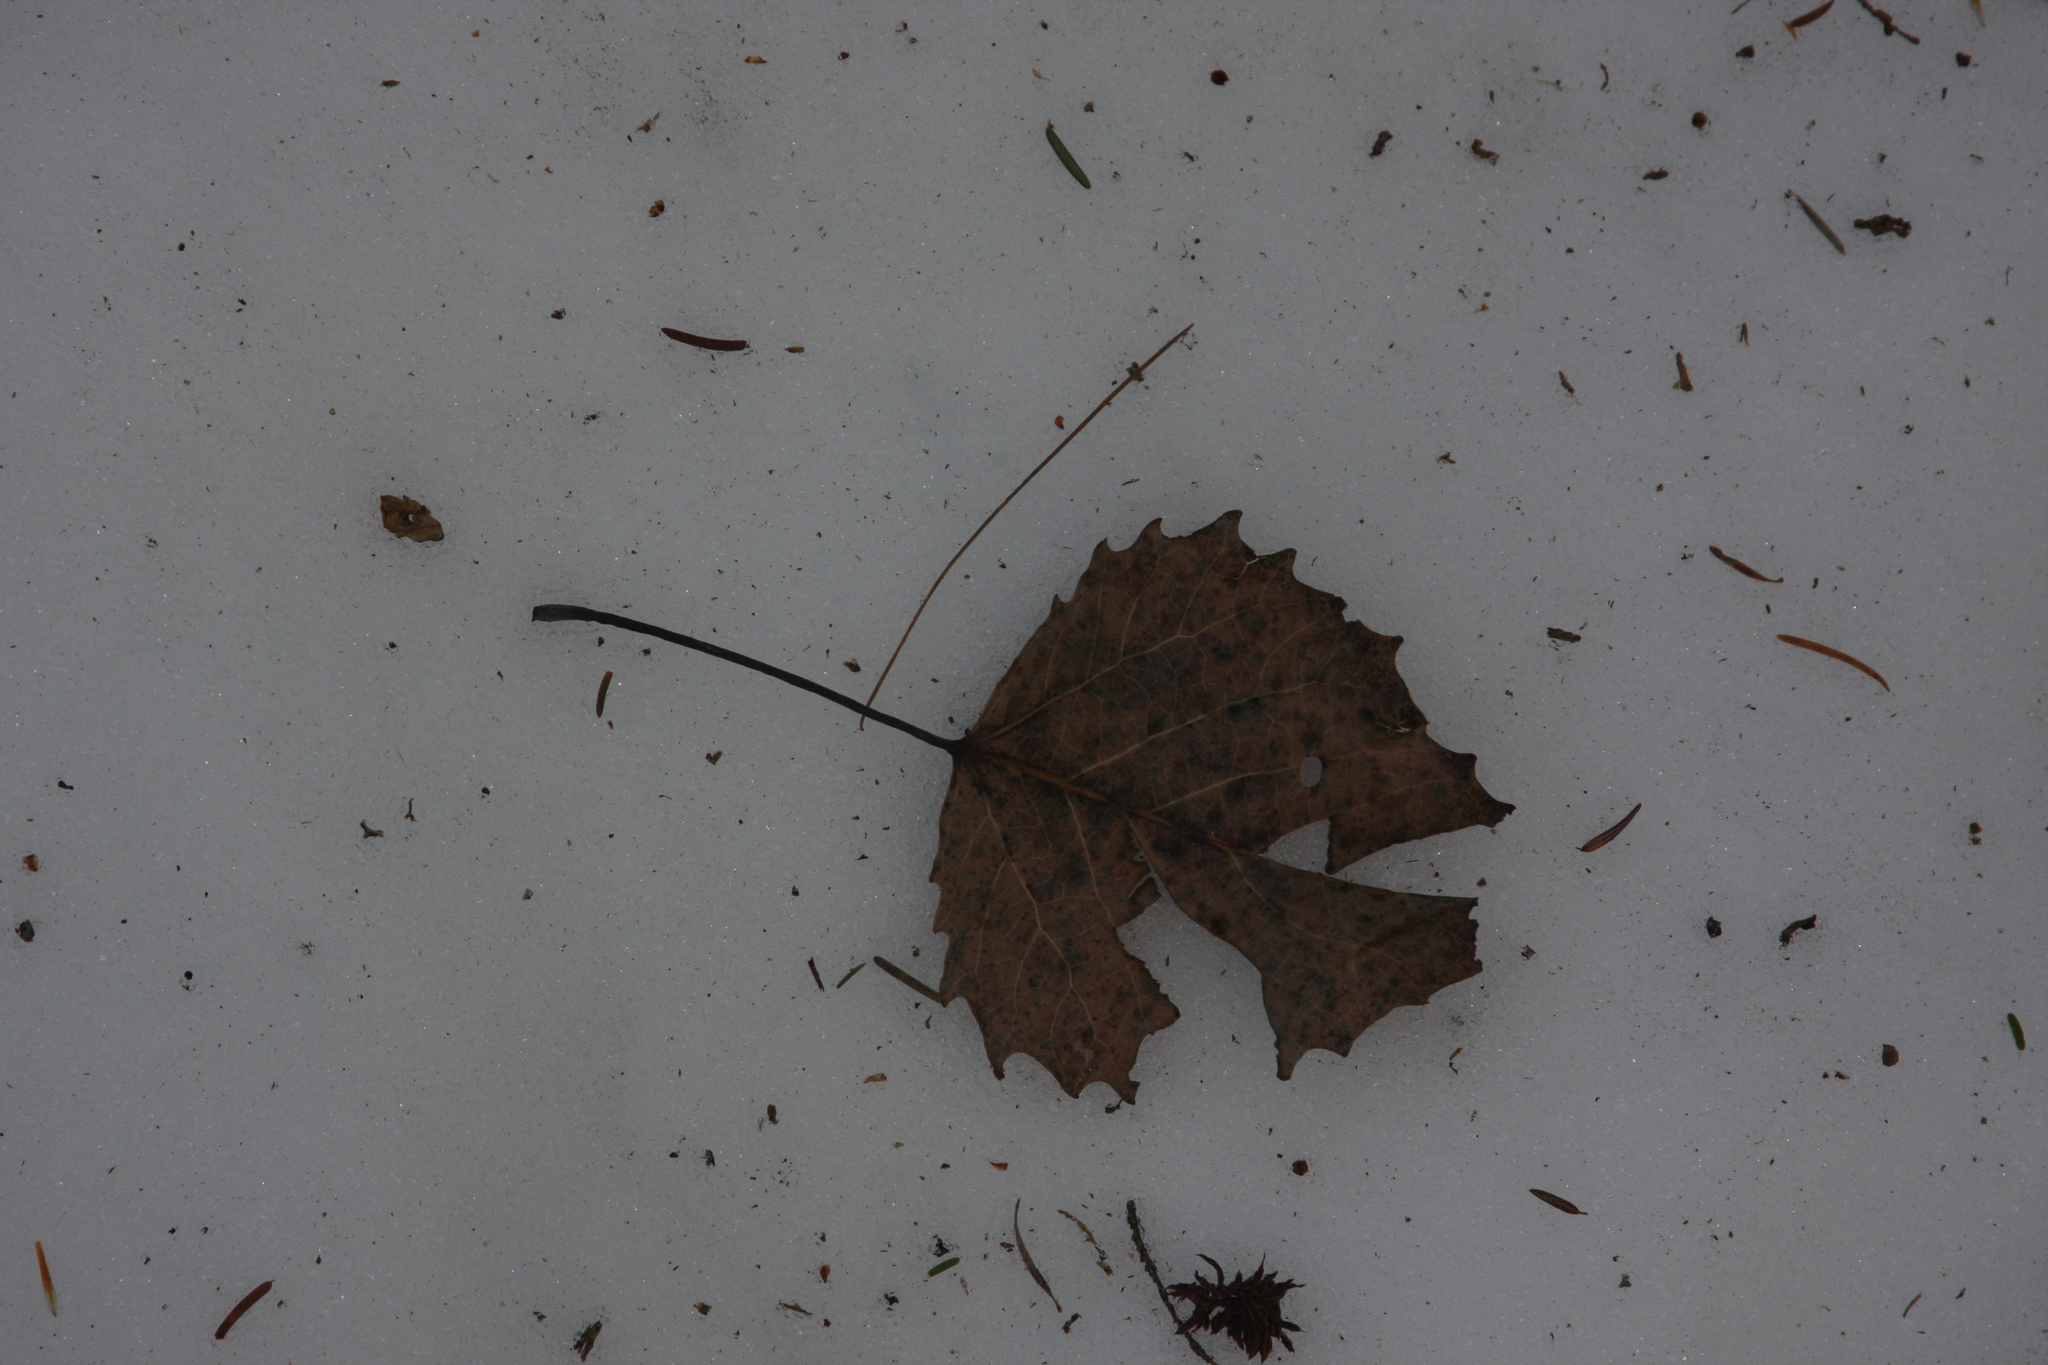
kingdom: Plantae
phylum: Tracheophyta
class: Magnoliopsida
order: Malpighiales
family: Salicaceae
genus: Populus
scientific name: Populus grandidentata
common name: Bigtooth aspen
